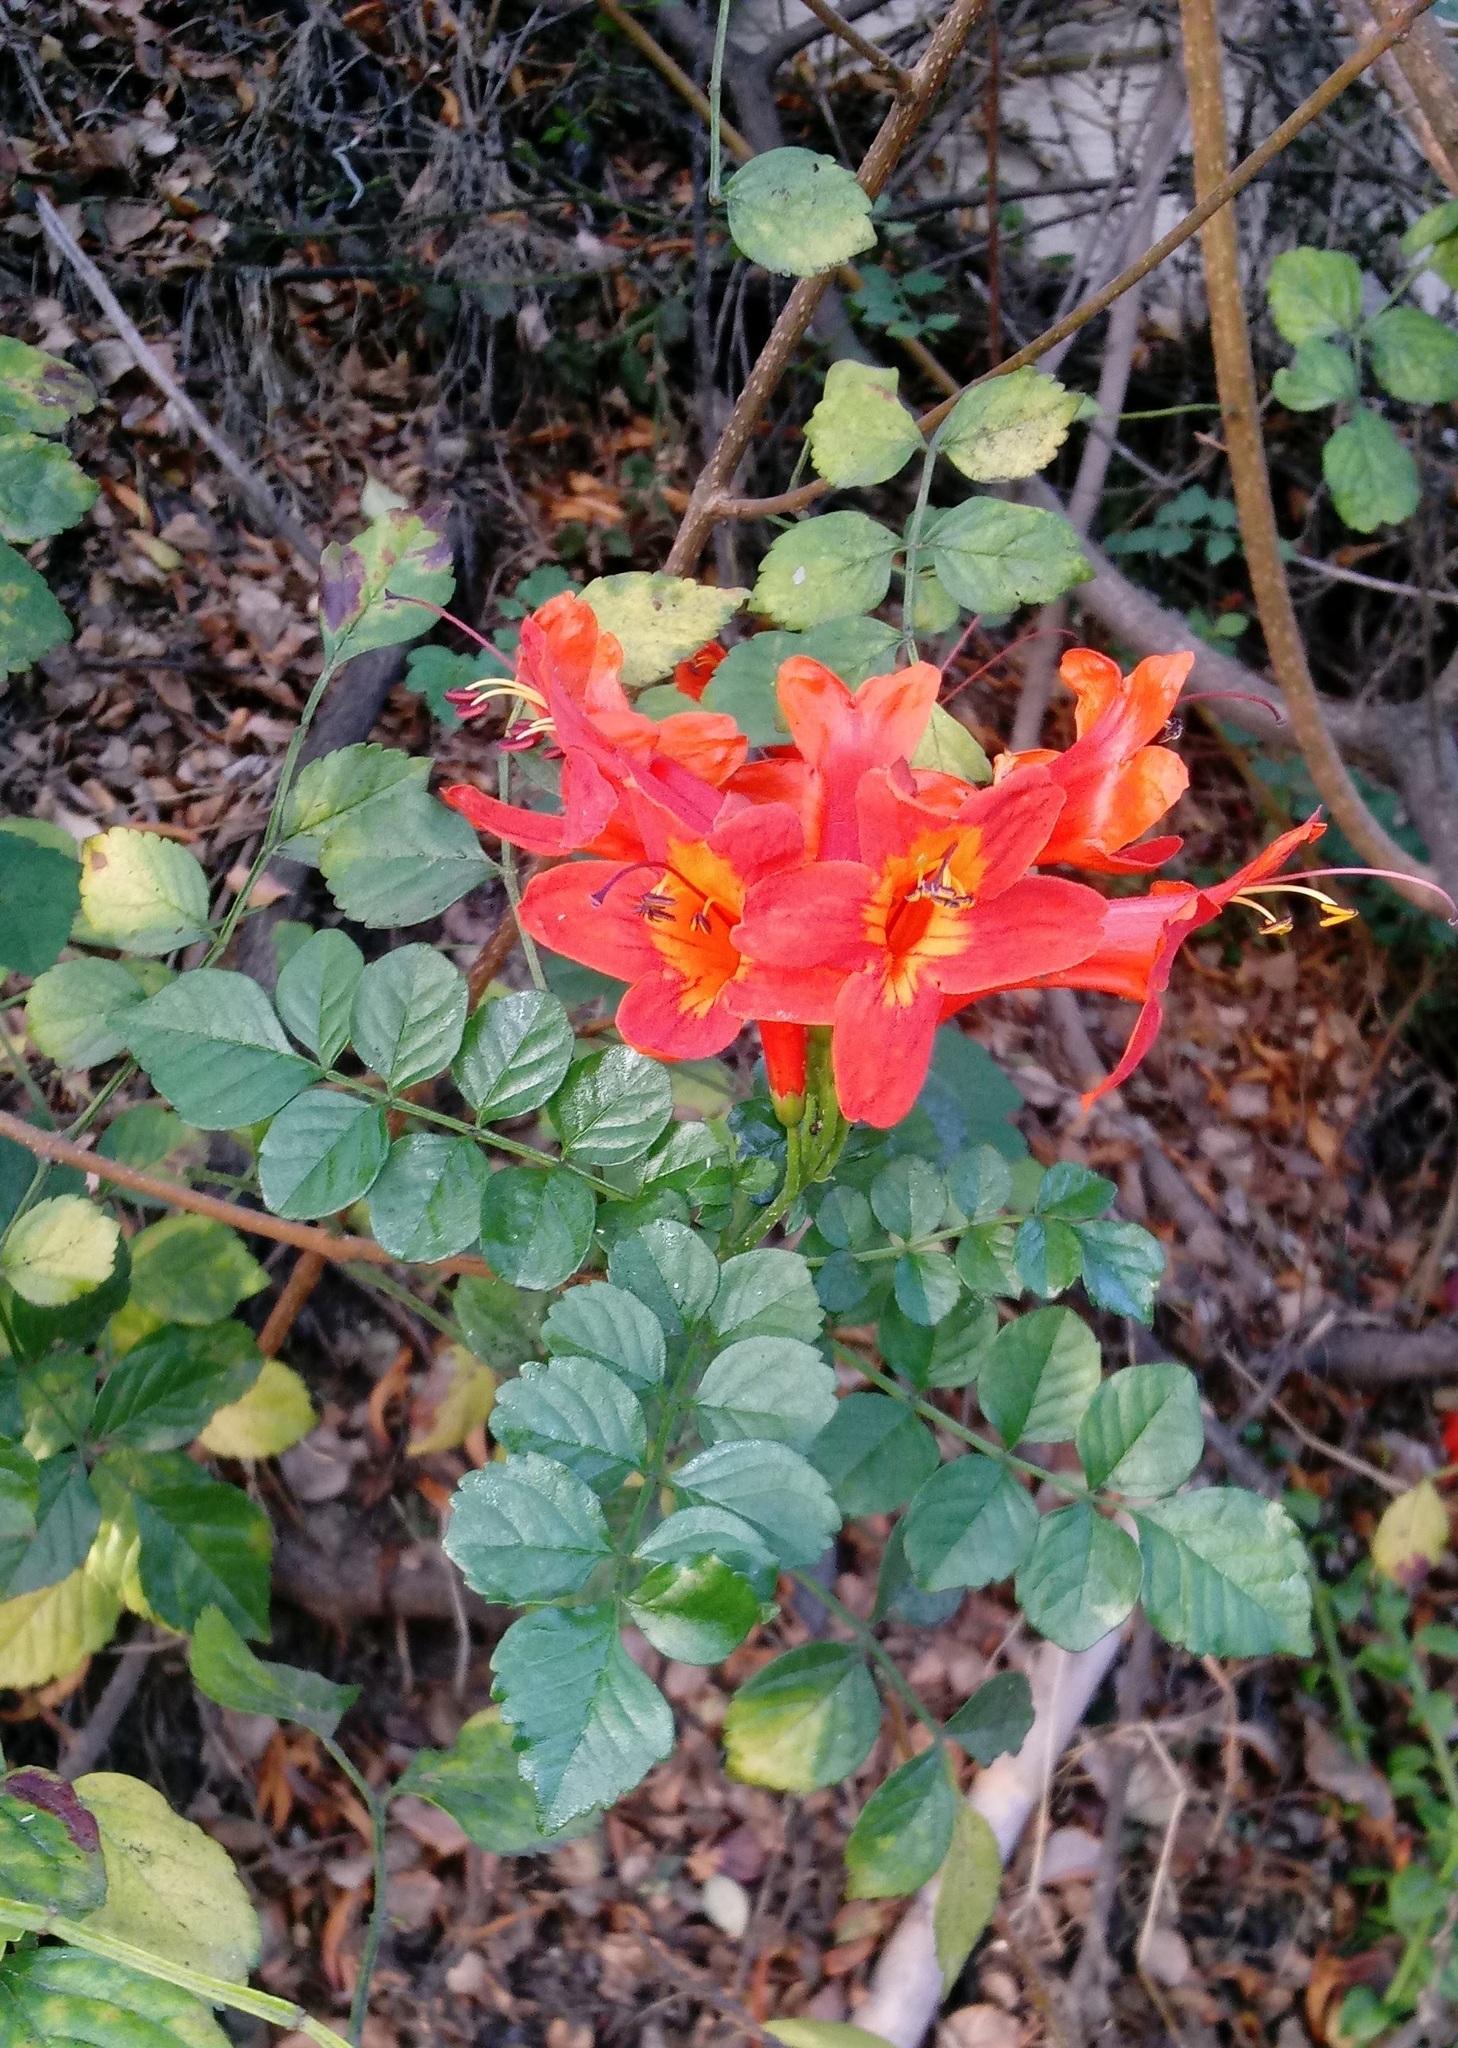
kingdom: Plantae
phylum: Tracheophyta
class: Magnoliopsida
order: Lamiales
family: Bignoniaceae
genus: Tecomaria
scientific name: Tecomaria capensis
